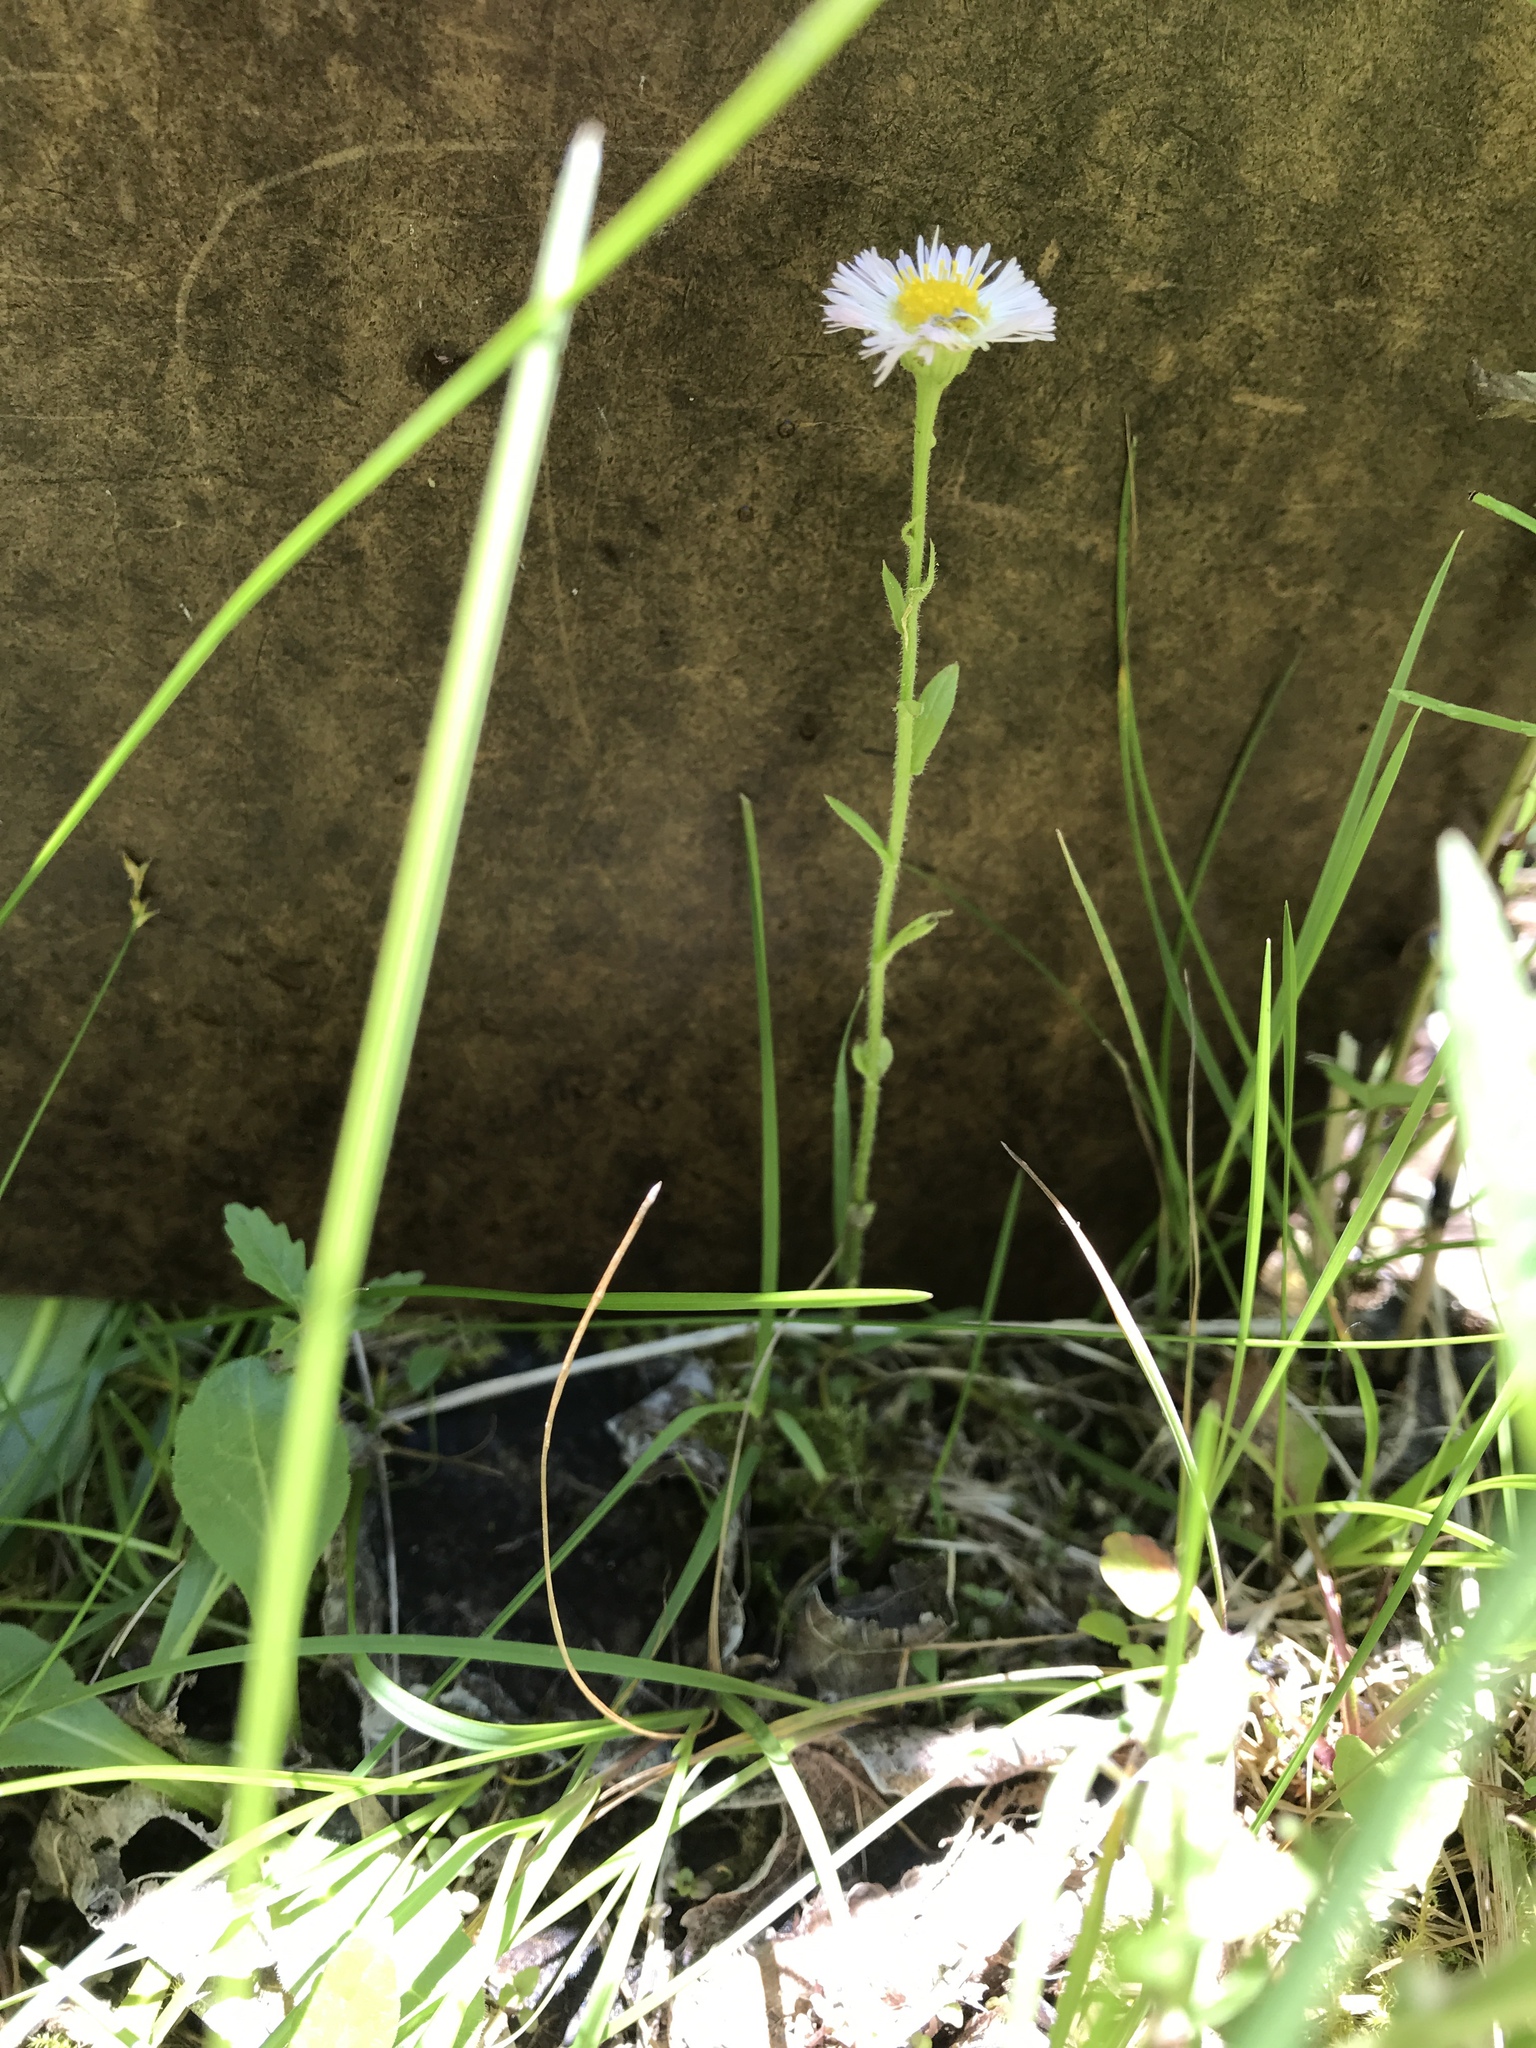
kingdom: Plantae
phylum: Tracheophyta
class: Magnoliopsida
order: Asterales
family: Asteraceae
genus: Erigeron
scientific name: Erigeron pulchellus
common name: Hairy fleabane
